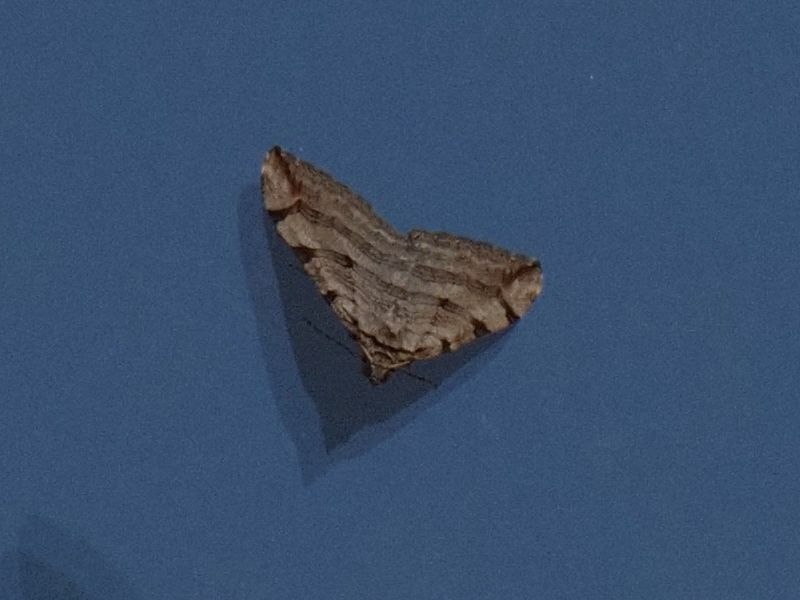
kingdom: Animalia
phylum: Arthropoda
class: Insecta
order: Lepidoptera
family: Geometridae
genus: Aplocera
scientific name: Aplocera plagiata
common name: Treble-bar
